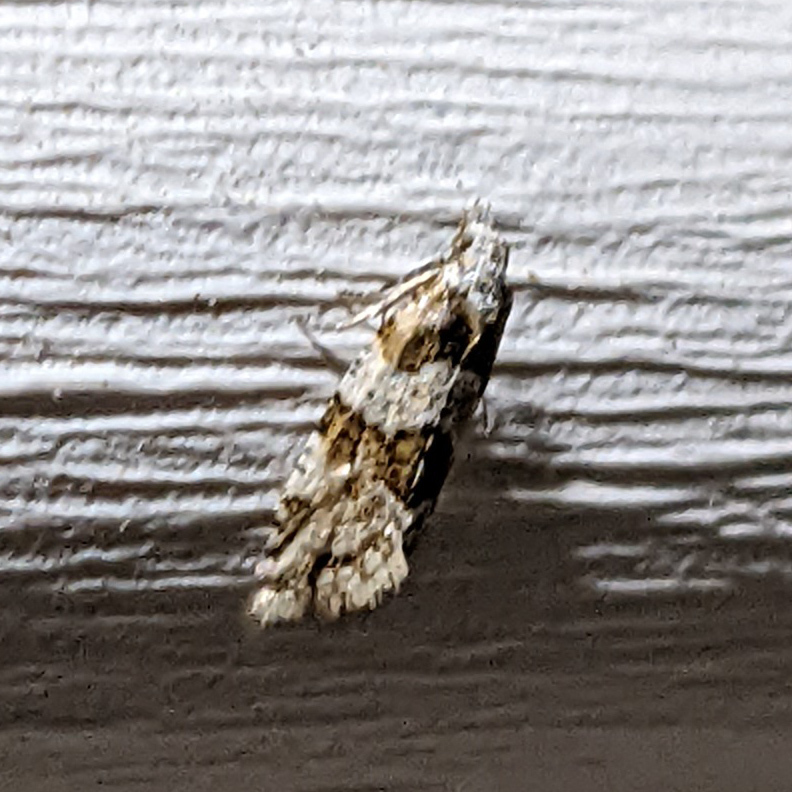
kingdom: Animalia
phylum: Arthropoda
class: Insecta
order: Lepidoptera
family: Tortricidae
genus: Aethes
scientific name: Aethes argentilimitana
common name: Silver-bordered aethes
